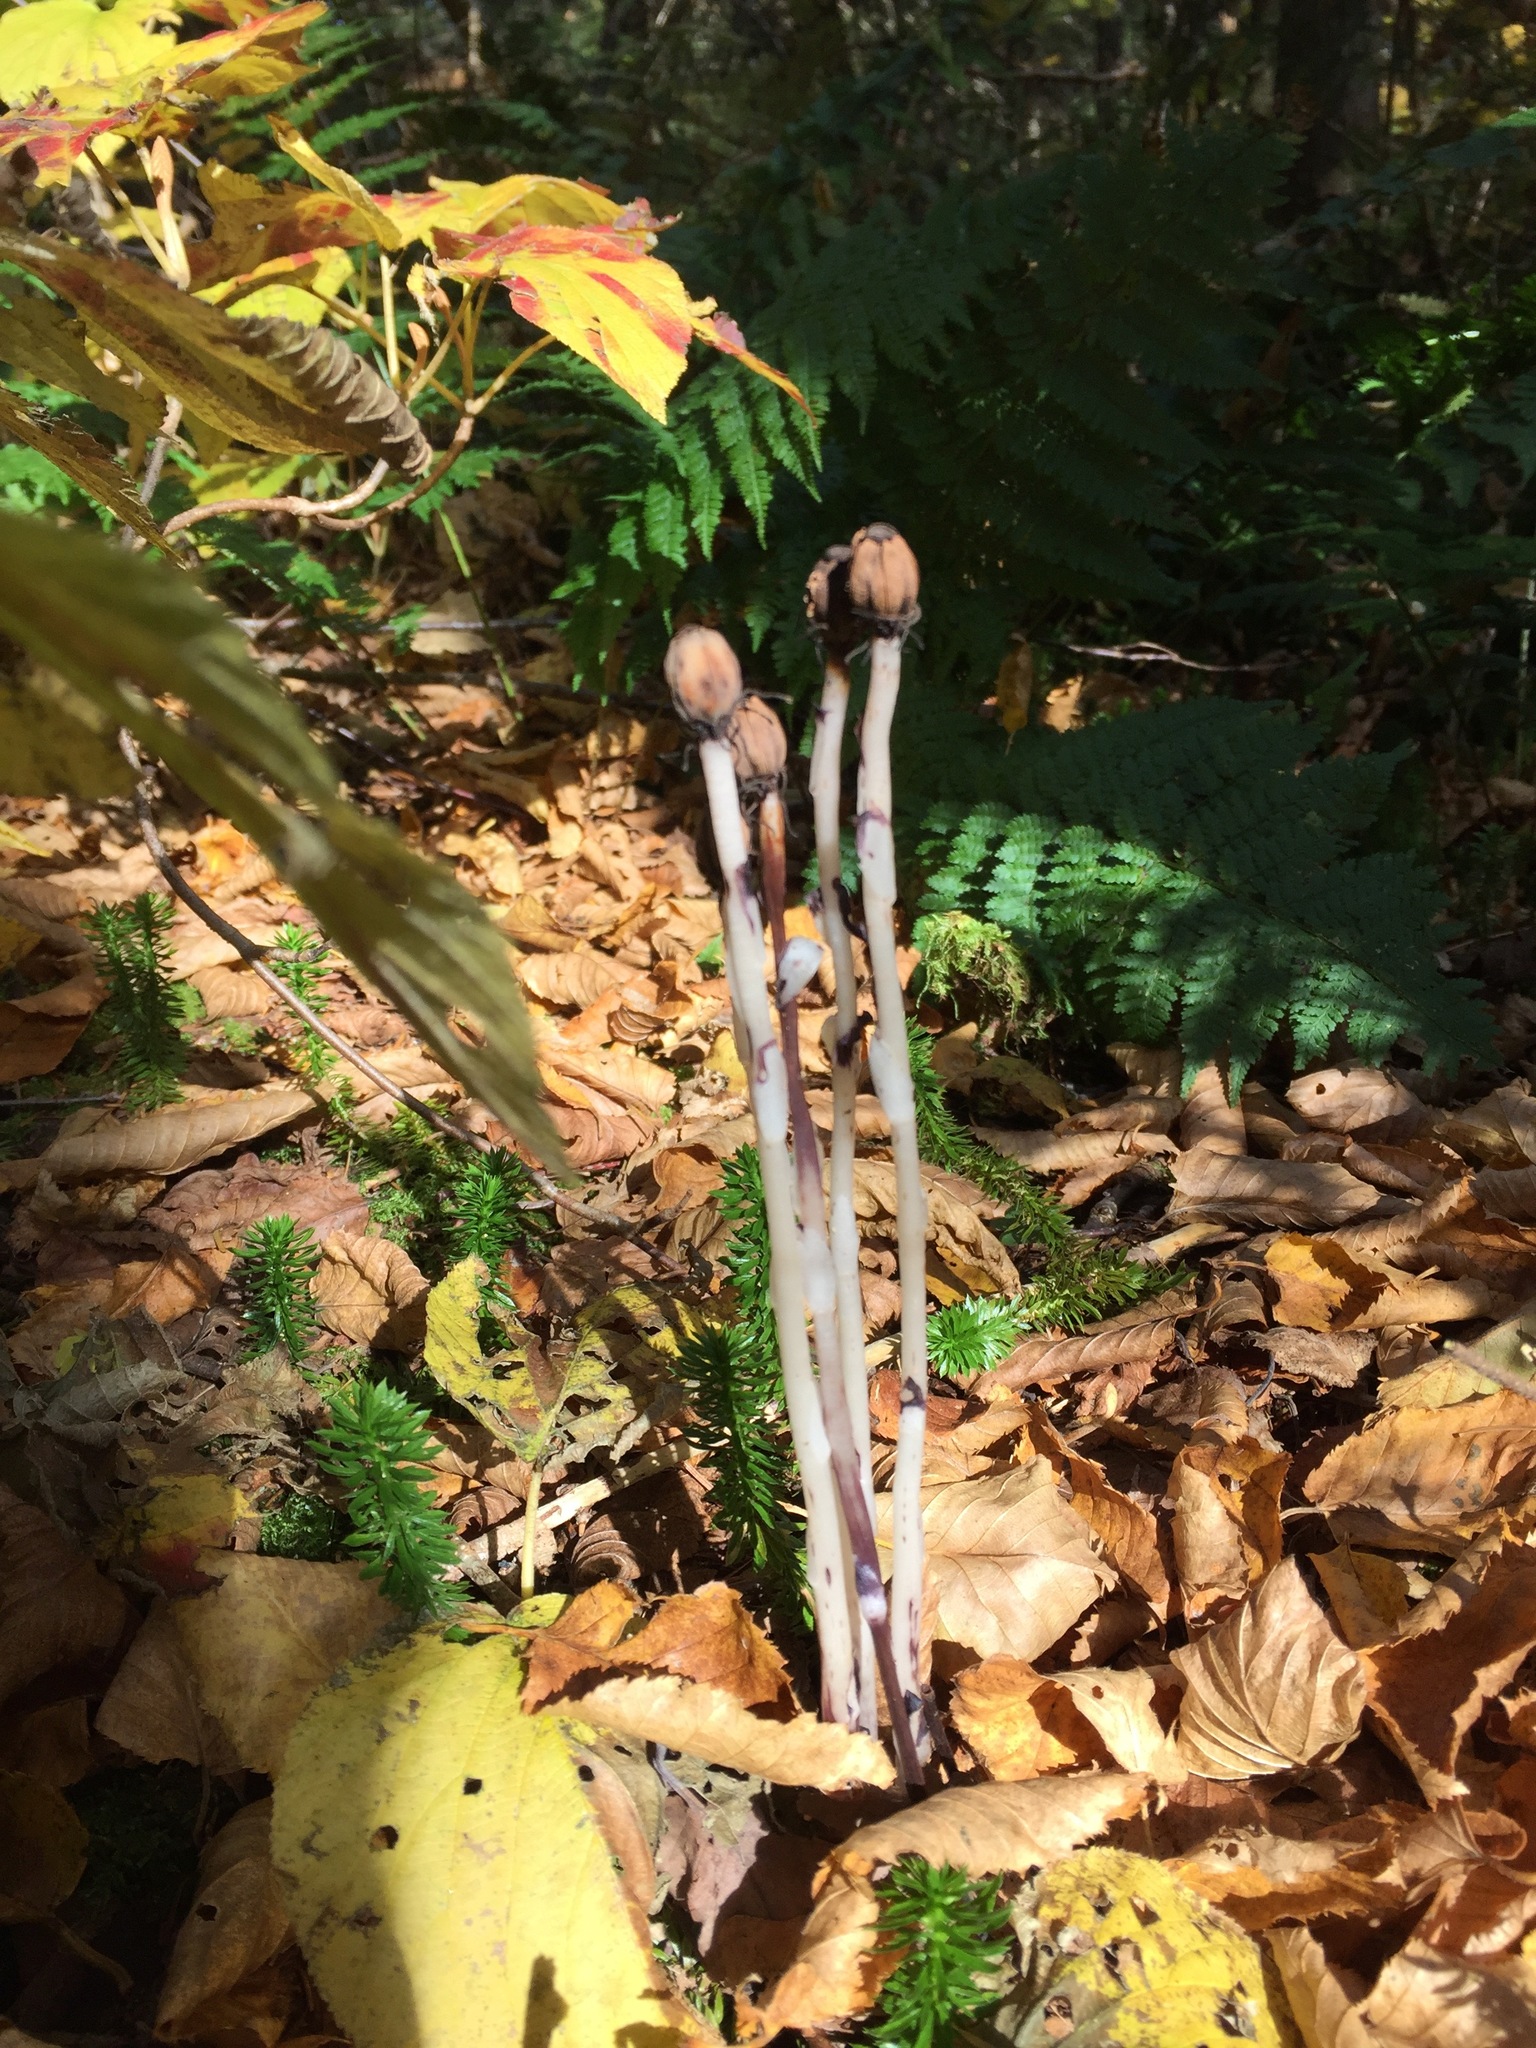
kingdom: Plantae
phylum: Tracheophyta
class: Magnoliopsida
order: Ericales
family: Ericaceae
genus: Monotropa
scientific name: Monotropa uniflora
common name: Convulsion root
